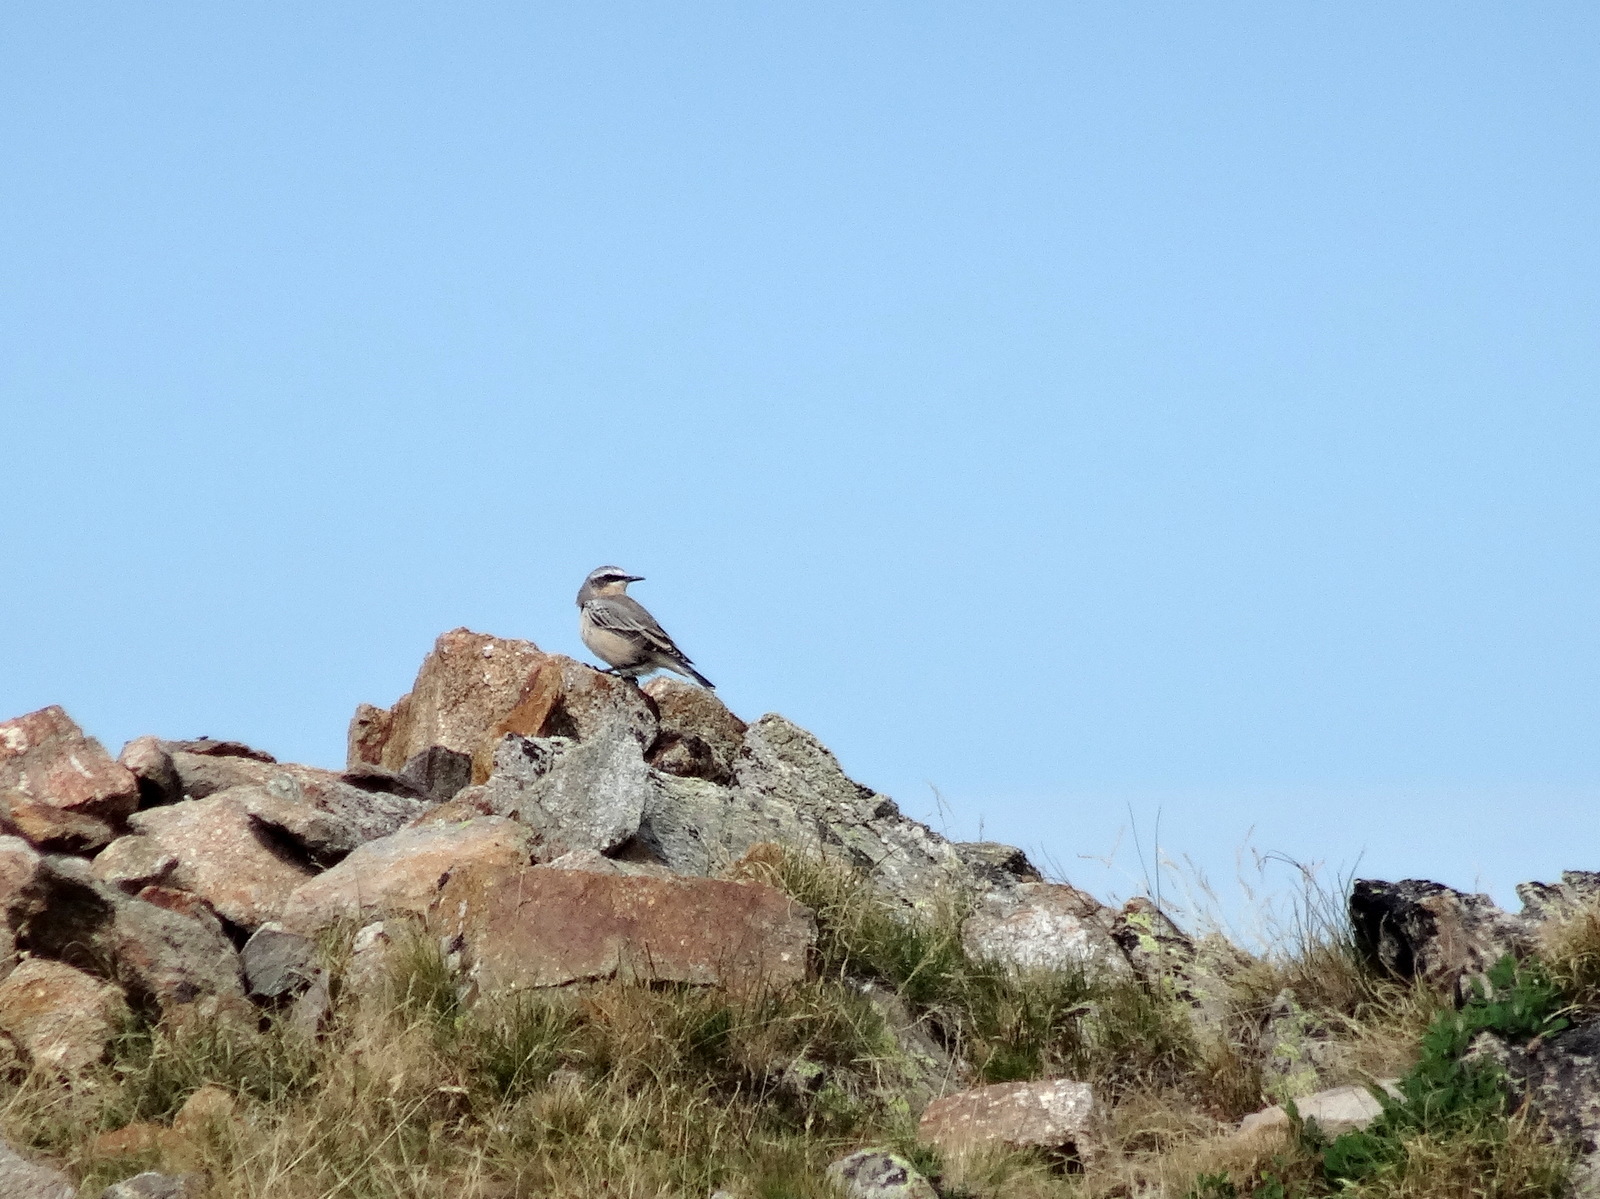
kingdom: Animalia
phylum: Chordata
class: Aves
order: Passeriformes
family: Muscicapidae
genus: Oenanthe
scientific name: Oenanthe oenanthe
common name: Northern wheatear
